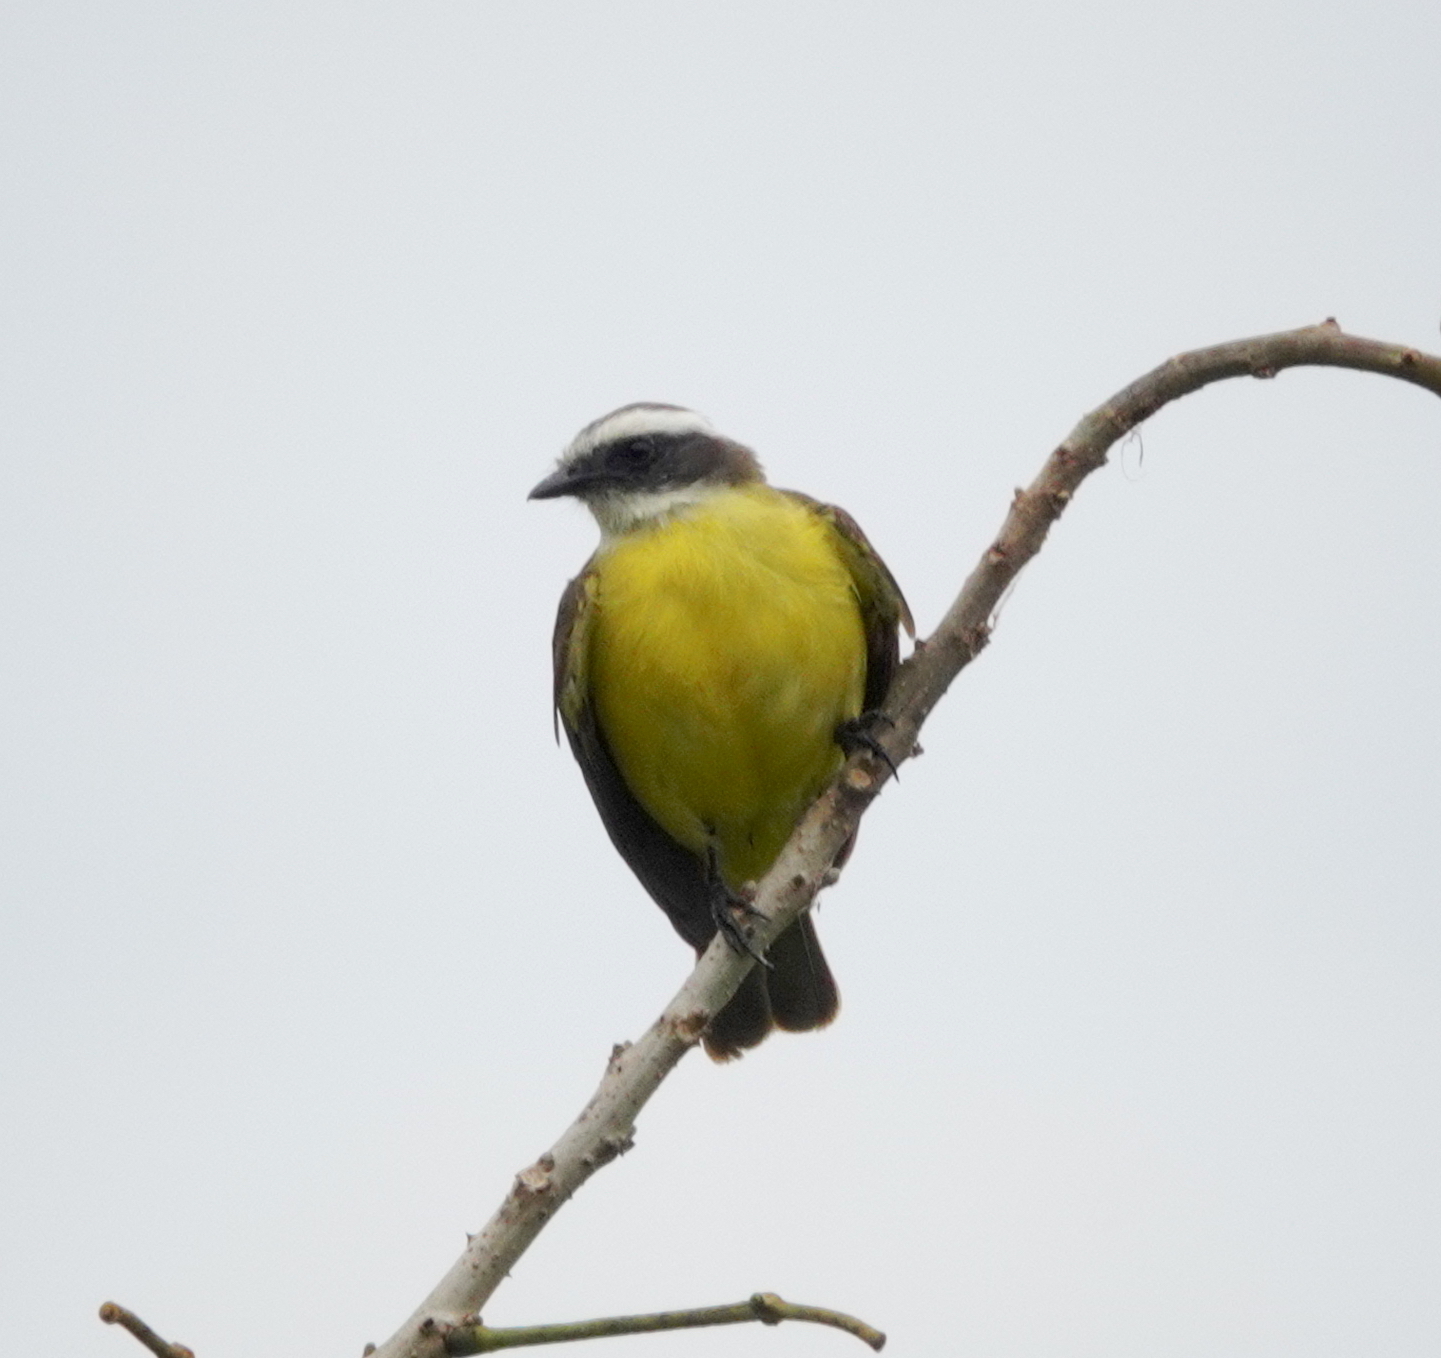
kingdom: Animalia
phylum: Chordata
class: Aves
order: Passeriformes
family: Tyrannidae
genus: Myiozetetes
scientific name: Myiozetetes similis
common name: Social flycatcher
